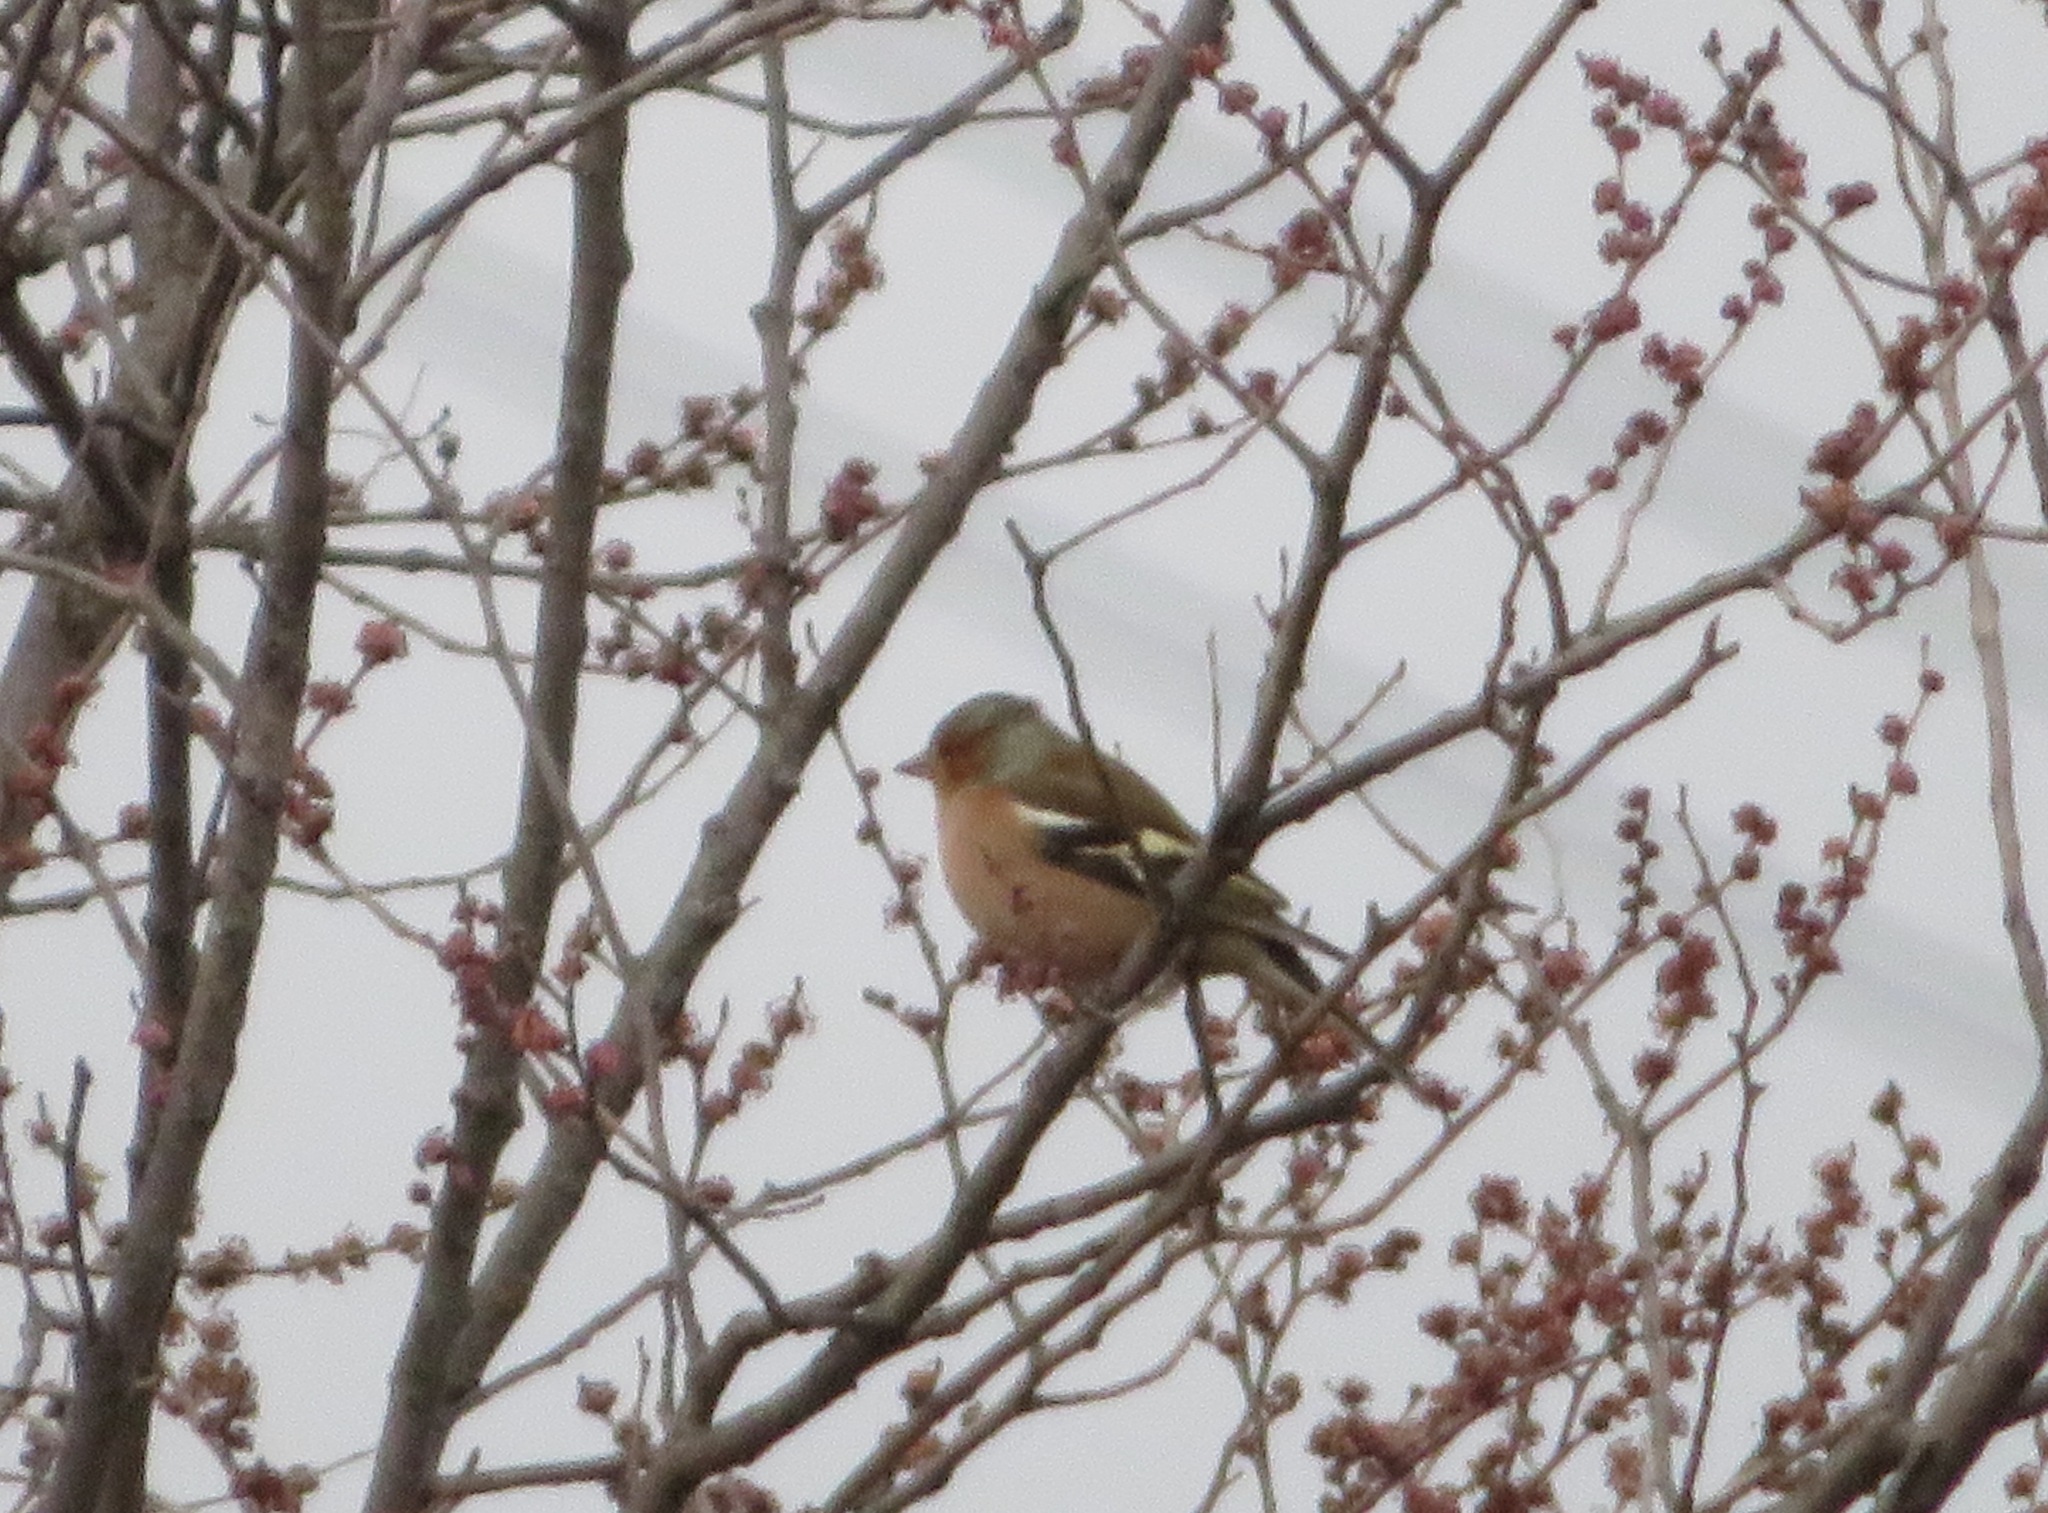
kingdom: Animalia
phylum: Chordata
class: Aves
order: Passeriformes
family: Fringillidae
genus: Fringilla
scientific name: Fringilla coelebs
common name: Common chaffinch
